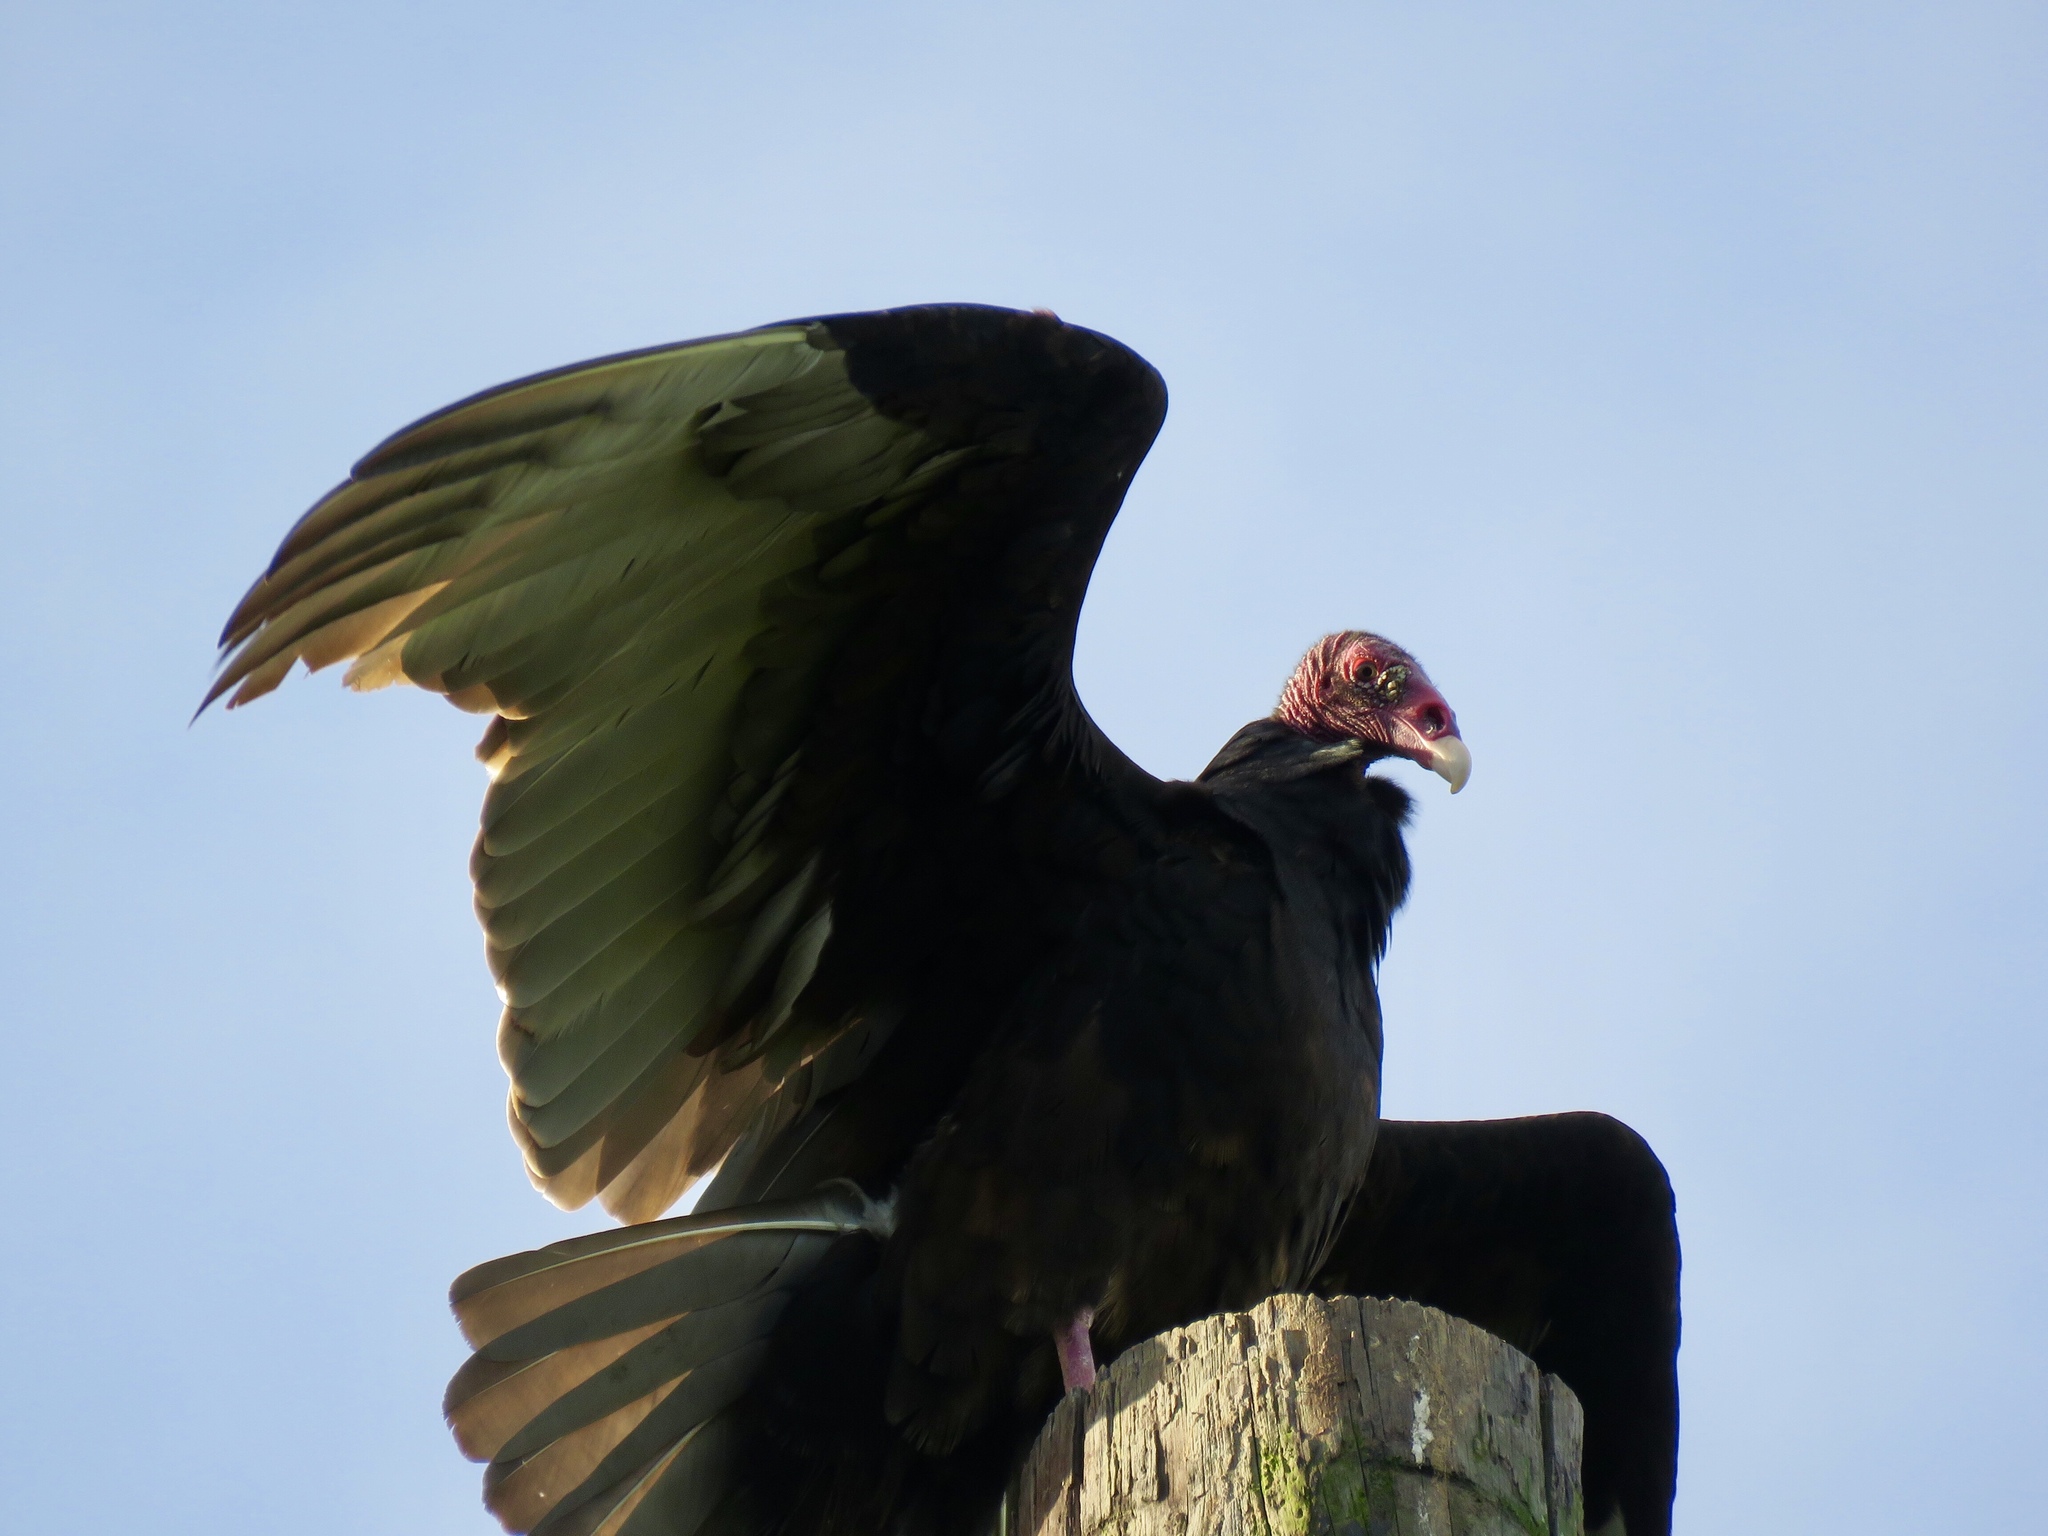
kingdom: Animalia
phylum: Chordata
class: Aves
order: Accipitriformes
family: Cathartidae
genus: Cathartes
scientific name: Cathartes aura
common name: Turkey vulture
